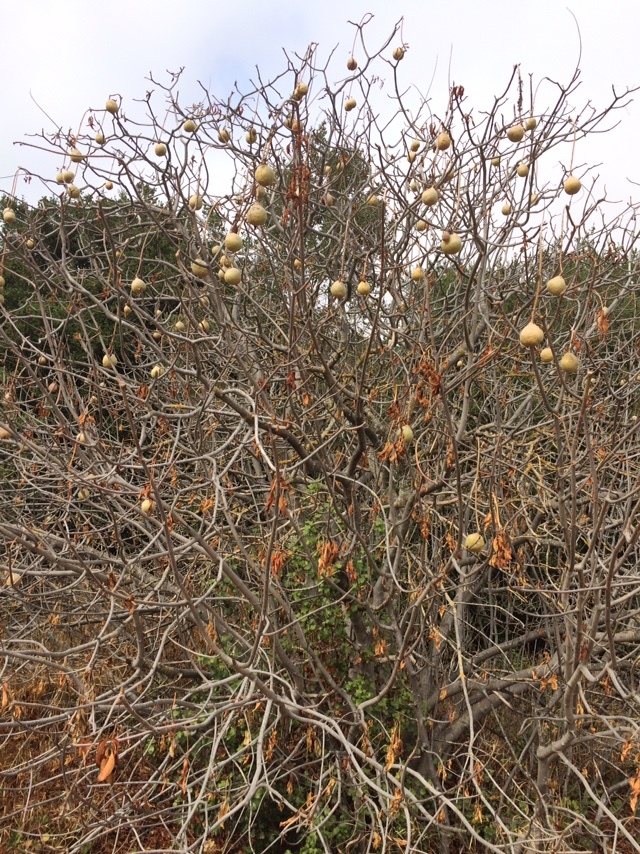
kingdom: Plantae
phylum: Tracheophyta
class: Magnoliopsida
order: Sapindales
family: Sapindaceae
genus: Aesculus
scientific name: Aesculus californica
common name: California buckeye
